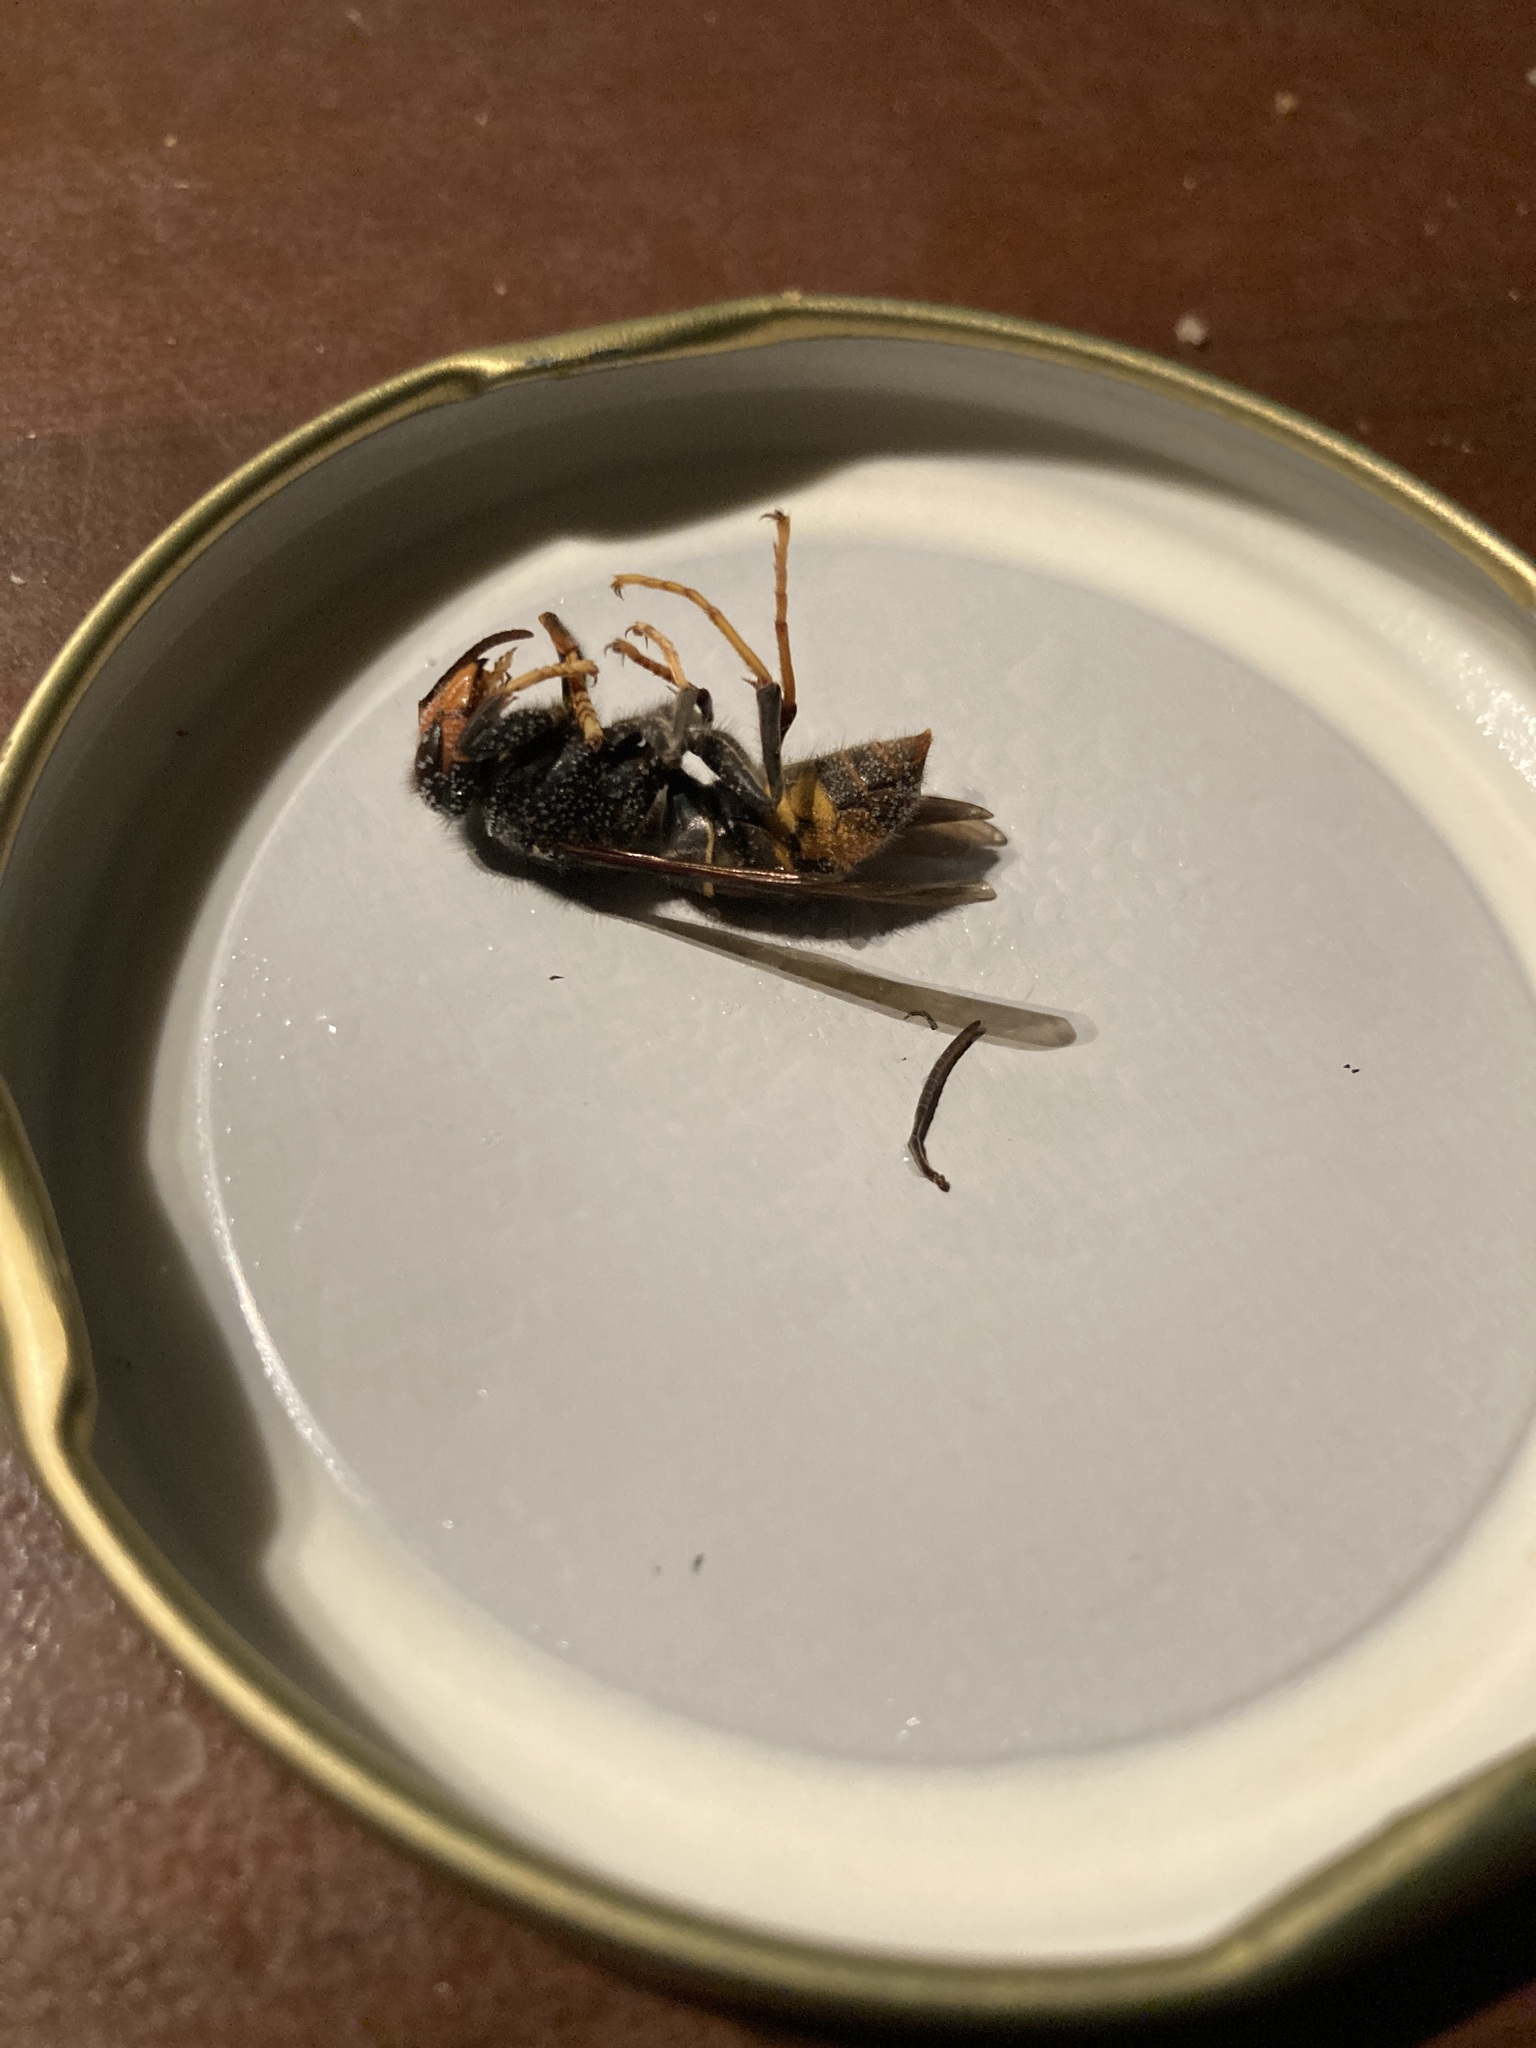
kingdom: Animalia
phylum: Arthropoda
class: Insecta
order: Hymenoptera
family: Vespidae
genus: Vespa
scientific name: Vespa velutina
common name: Asian hornet
